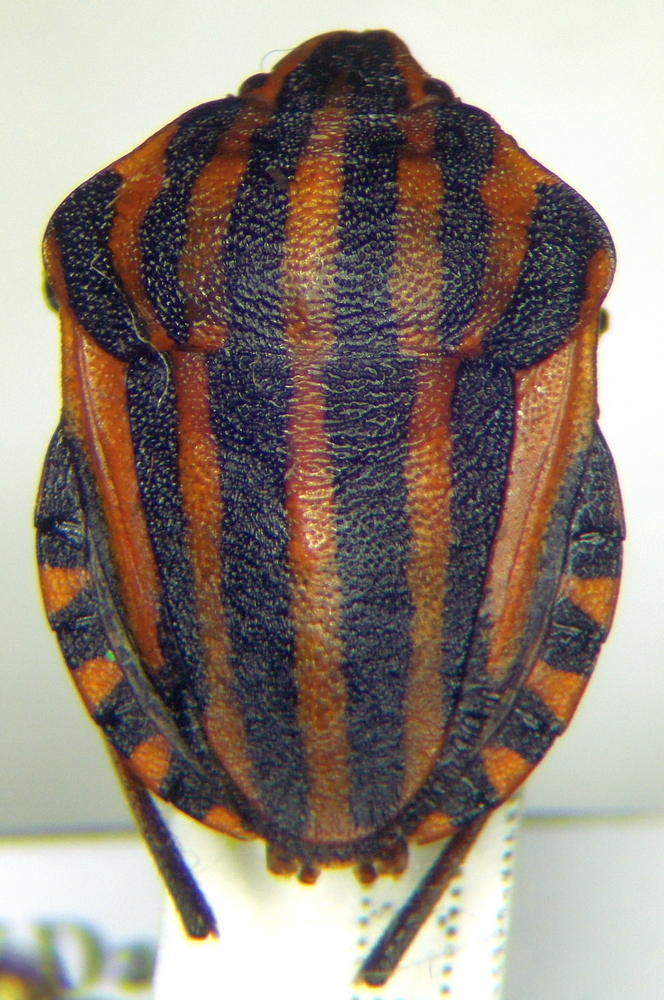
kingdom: Animalia
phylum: Arthropoda
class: Insecta
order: Hemiptera
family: Pentatomidae
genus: Graphosoma
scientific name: Graphosoma italicum
